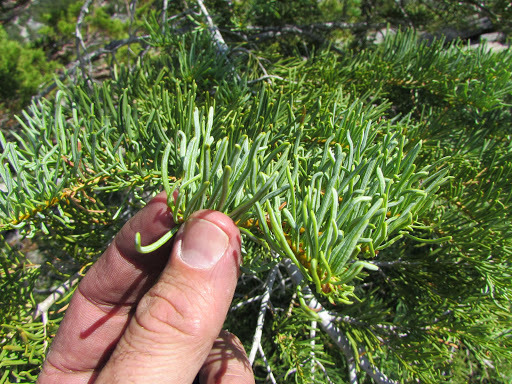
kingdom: Plantae
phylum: Tracheophyta
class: Pinopsida
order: Pinales
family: Pinaceae
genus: Abies
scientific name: Abies concolor
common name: Colorado fir
